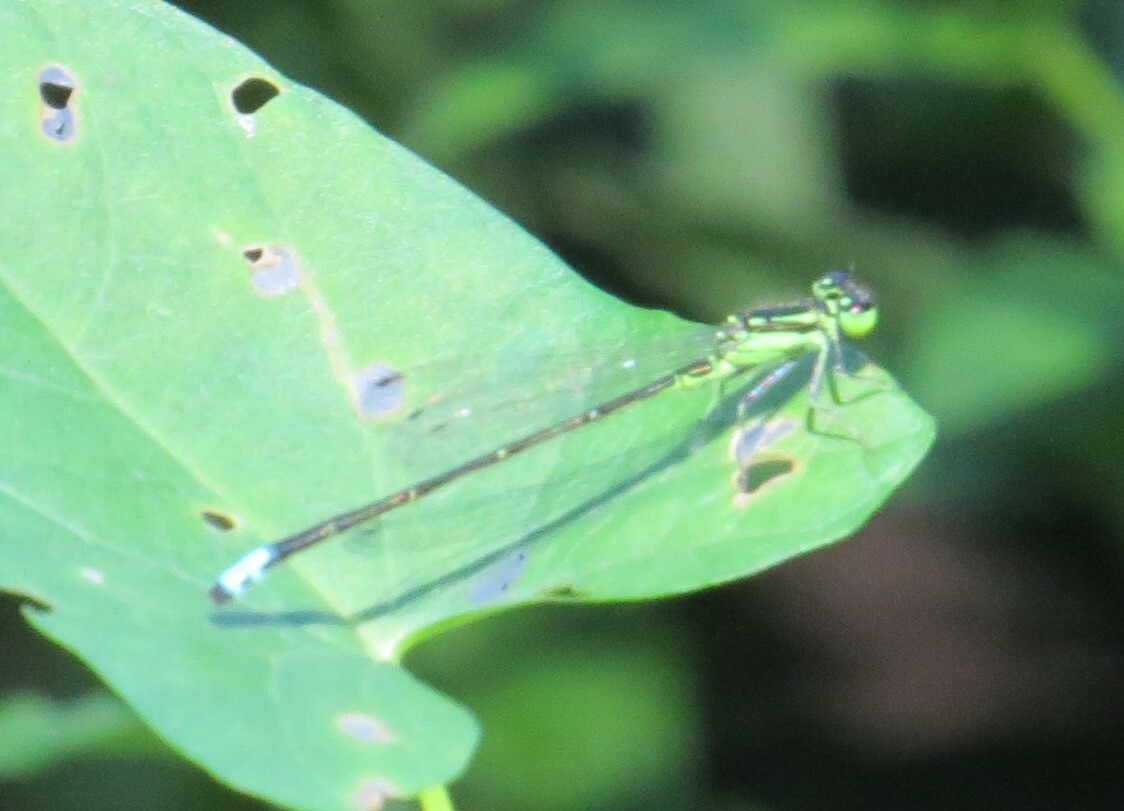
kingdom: Animalia
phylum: Arthropoda
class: Insecta
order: Odonata
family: Coenagrionidae
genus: Ischnura
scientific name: Ischnura verticalis
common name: Eastern forktail
